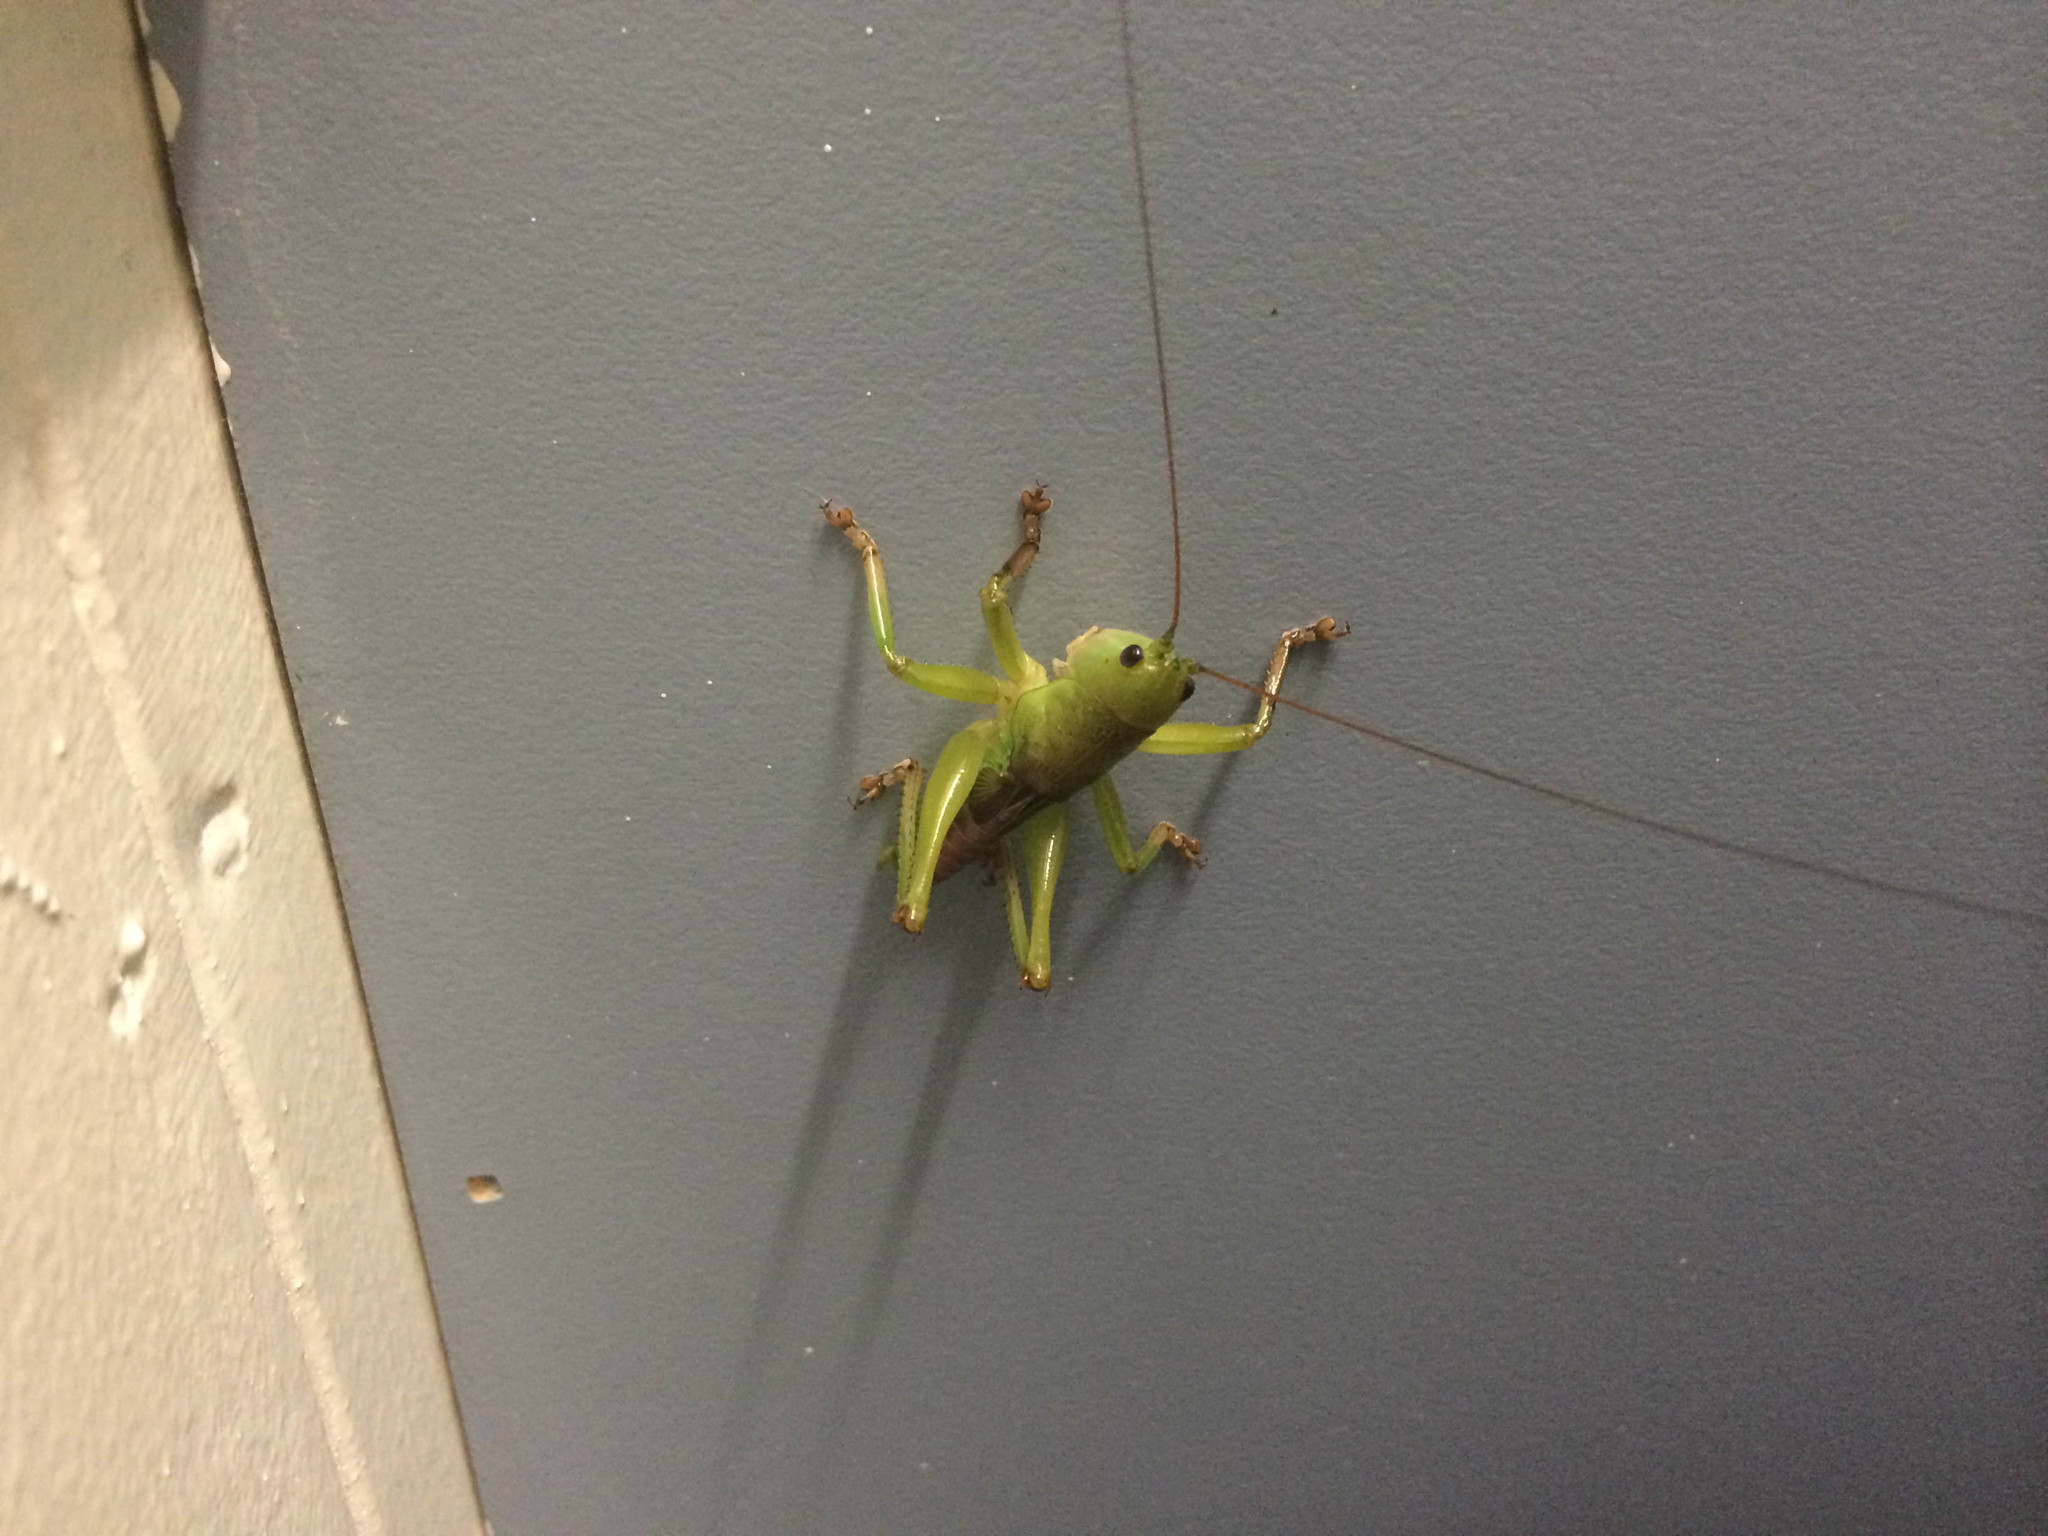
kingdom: Animalia
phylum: Arthropoda
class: Insecta
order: Orthoptera
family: Tettigoniidae
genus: Goodangarkia
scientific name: Goodangarkia dingaali
